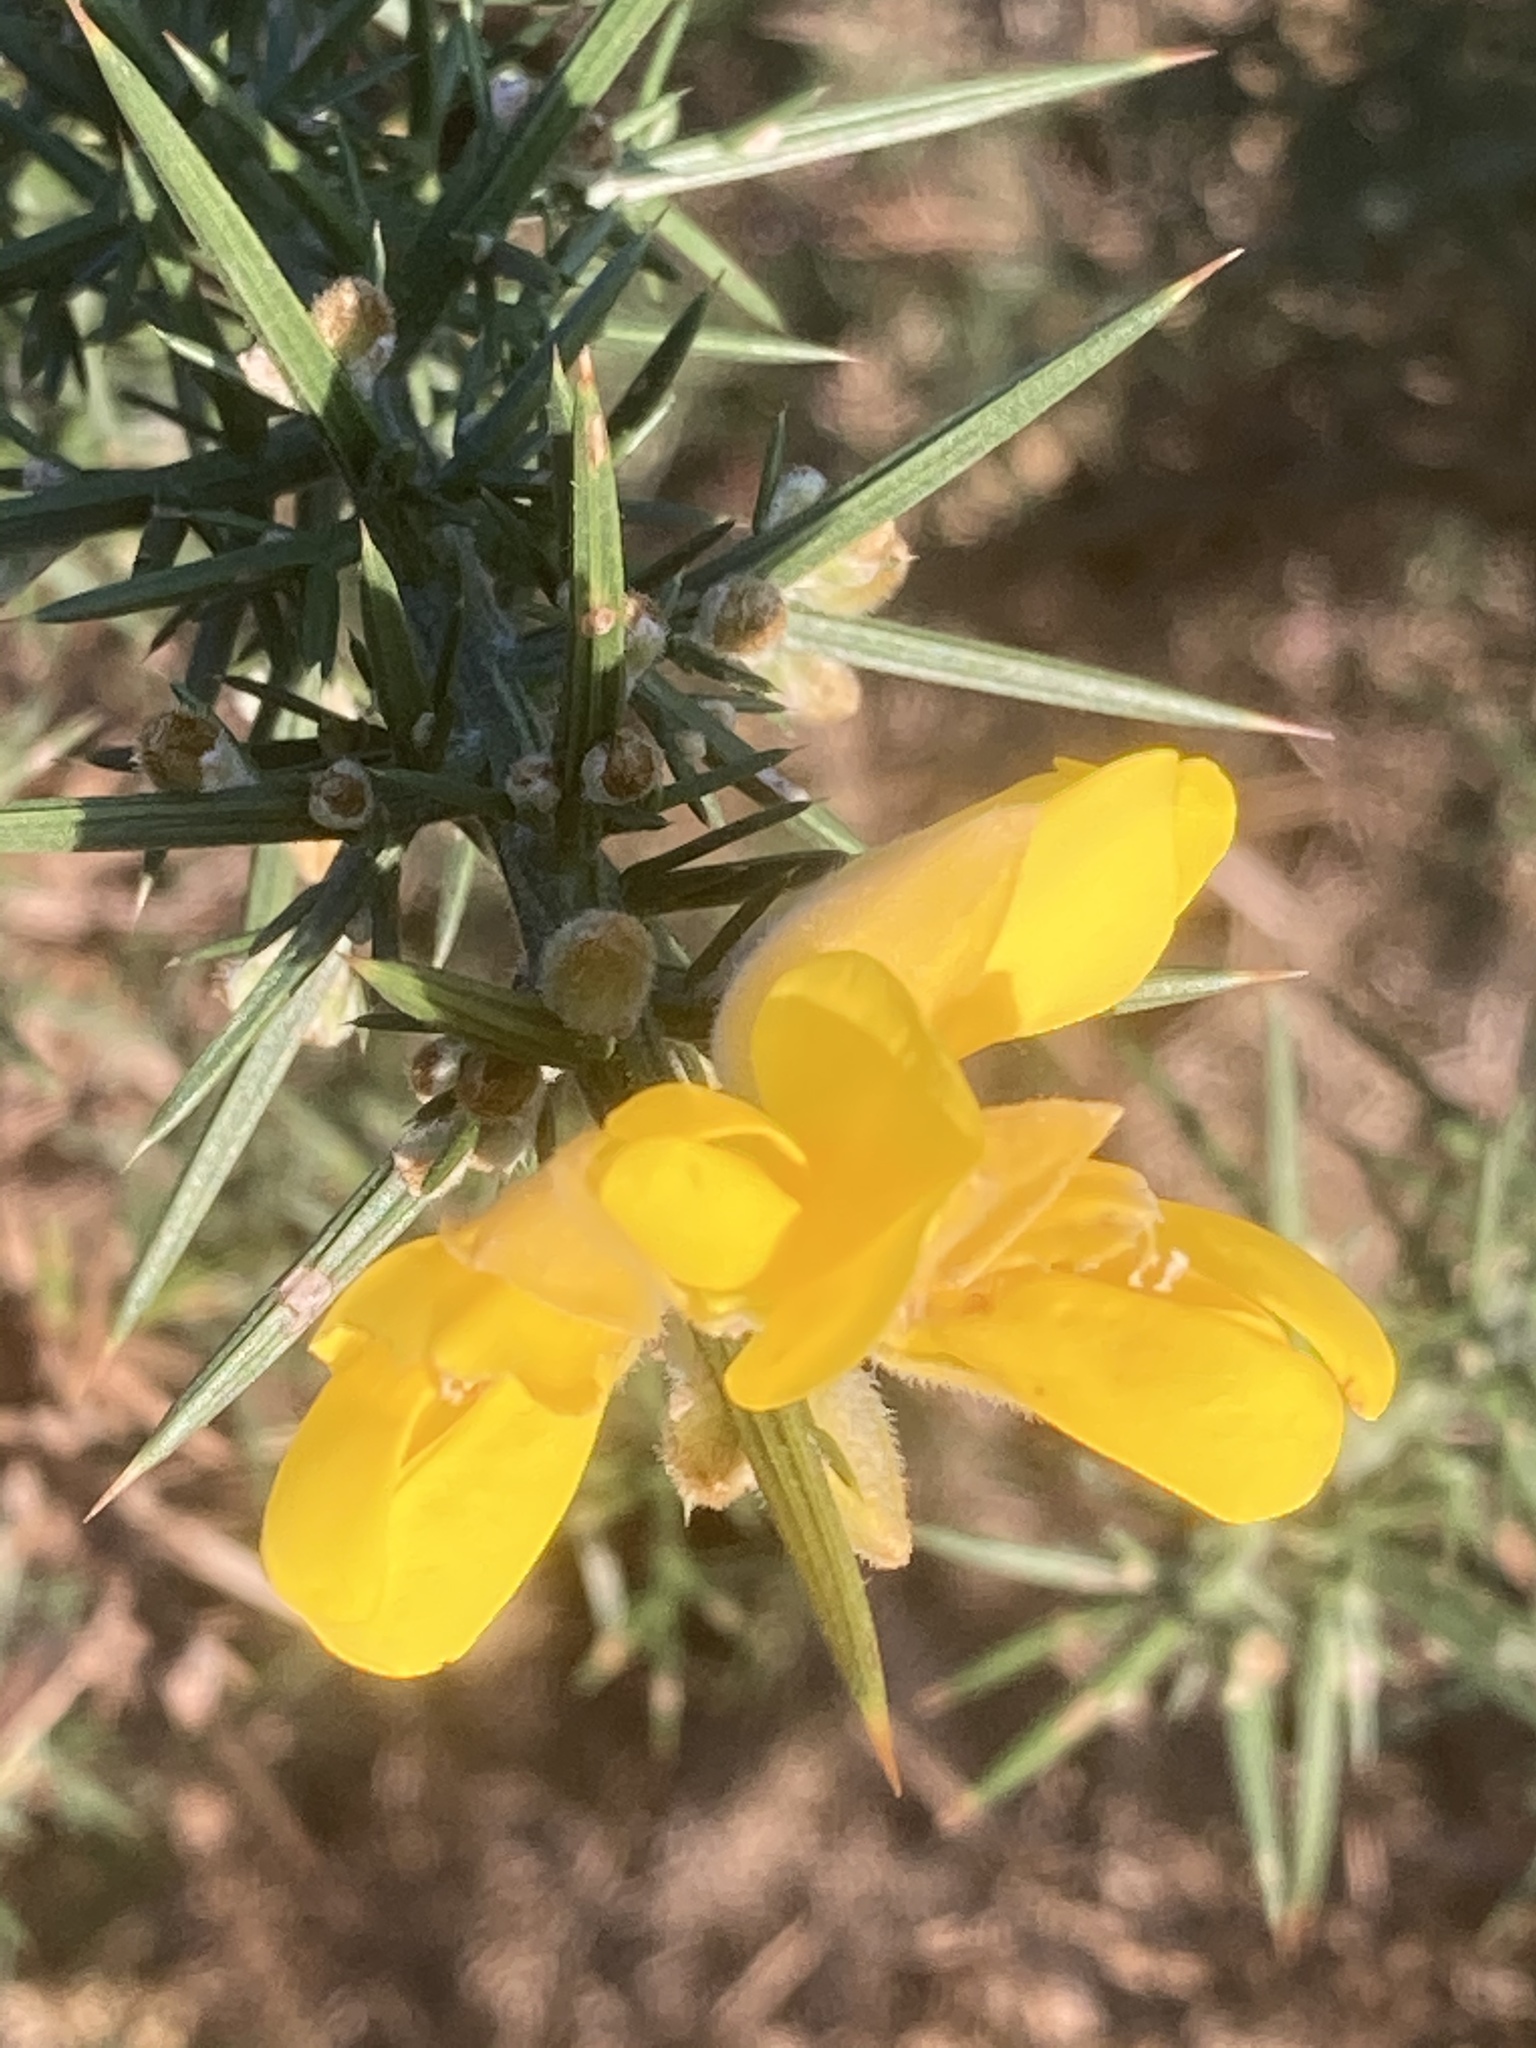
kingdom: Plantae
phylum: Tracheophyta
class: Magnoliopsida
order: Fabales
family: Fabaceae
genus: Ulex
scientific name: Ulex europaeus
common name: Common gorse
